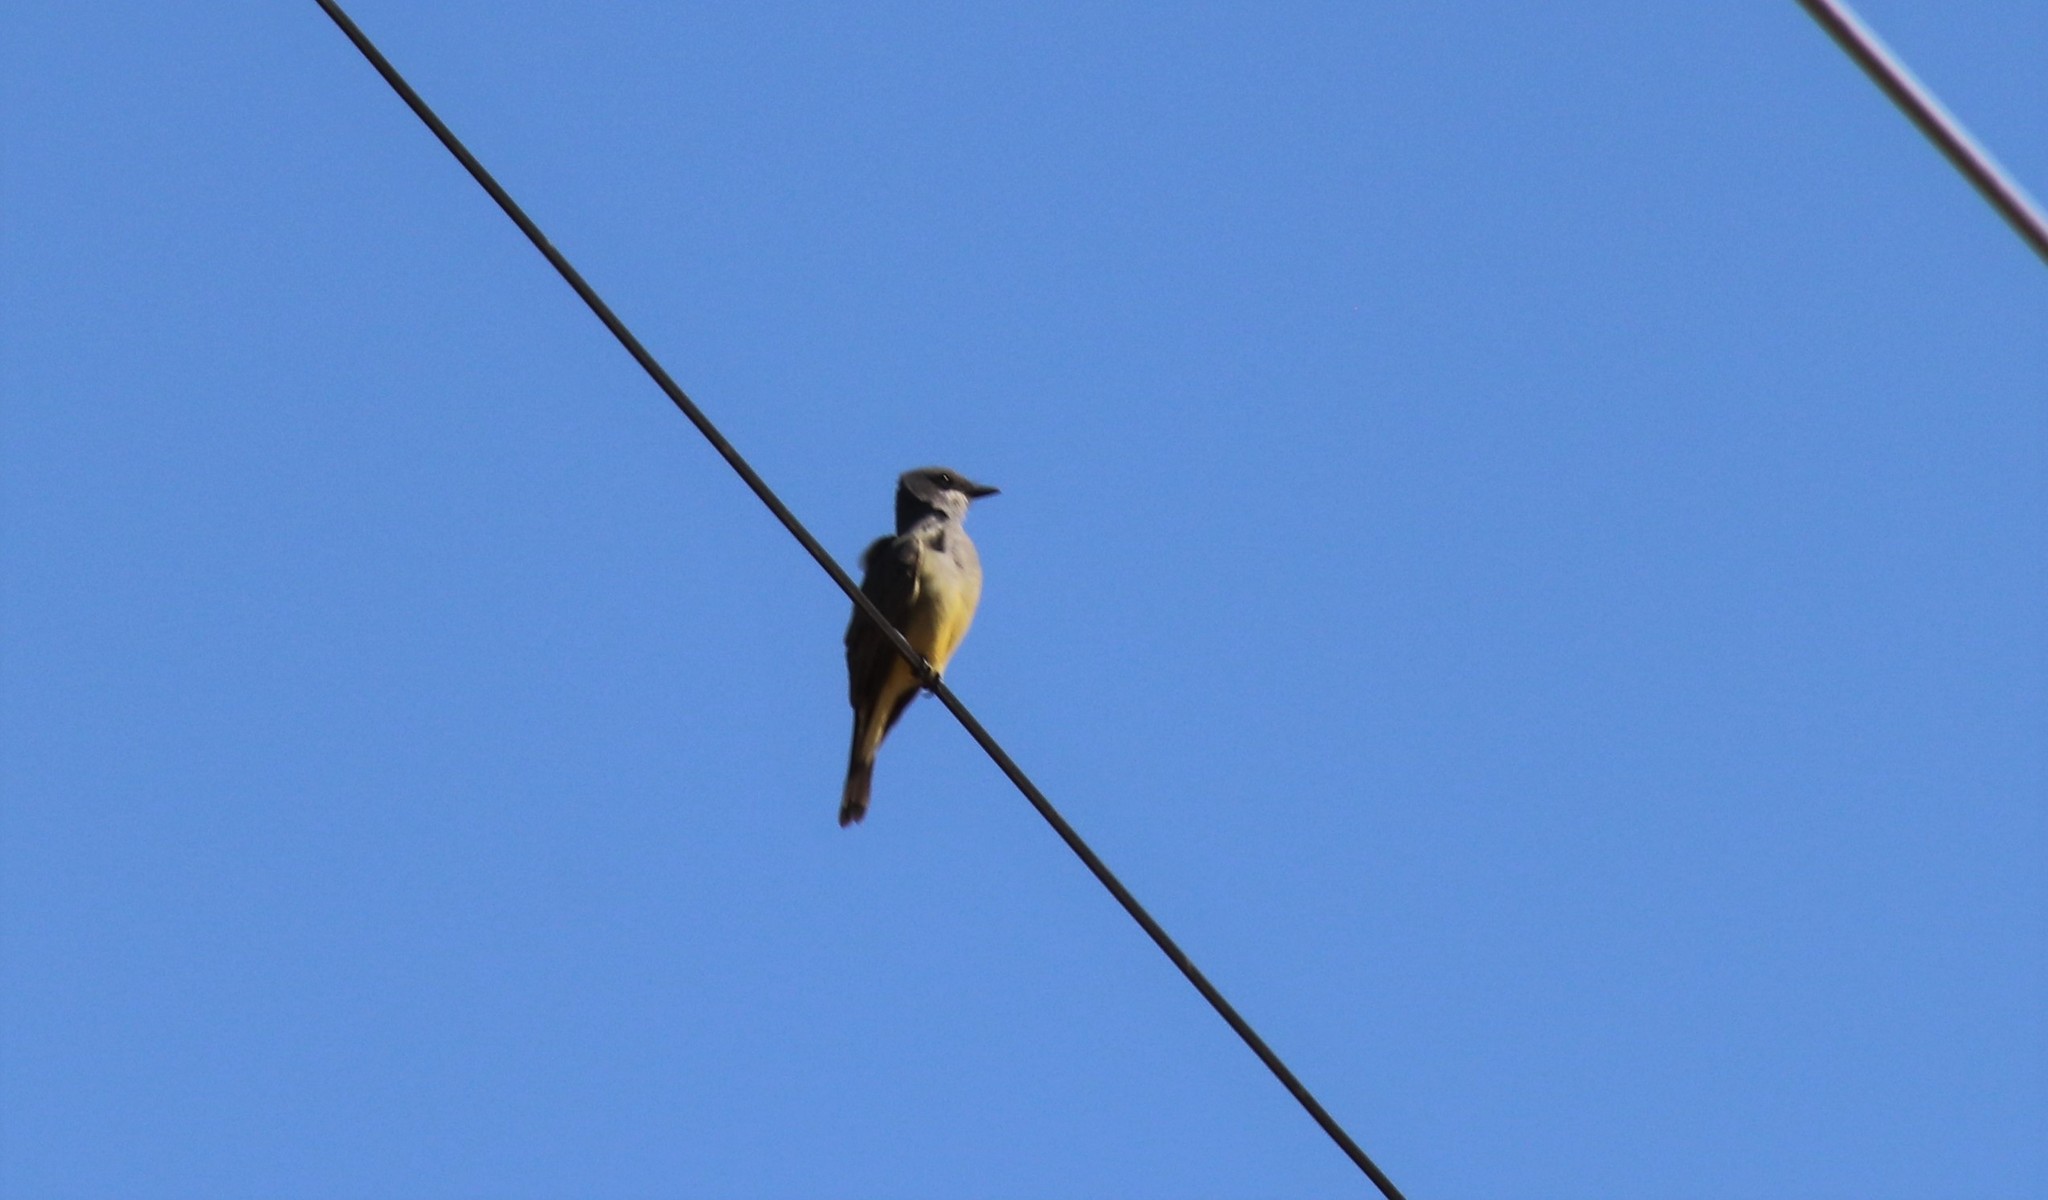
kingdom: Animalia
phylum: Chordata
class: Aves
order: Passeriformes
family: Tyrannidae
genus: Tyrannus
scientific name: Tyrannus vociferans
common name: Cassin's kingbird
